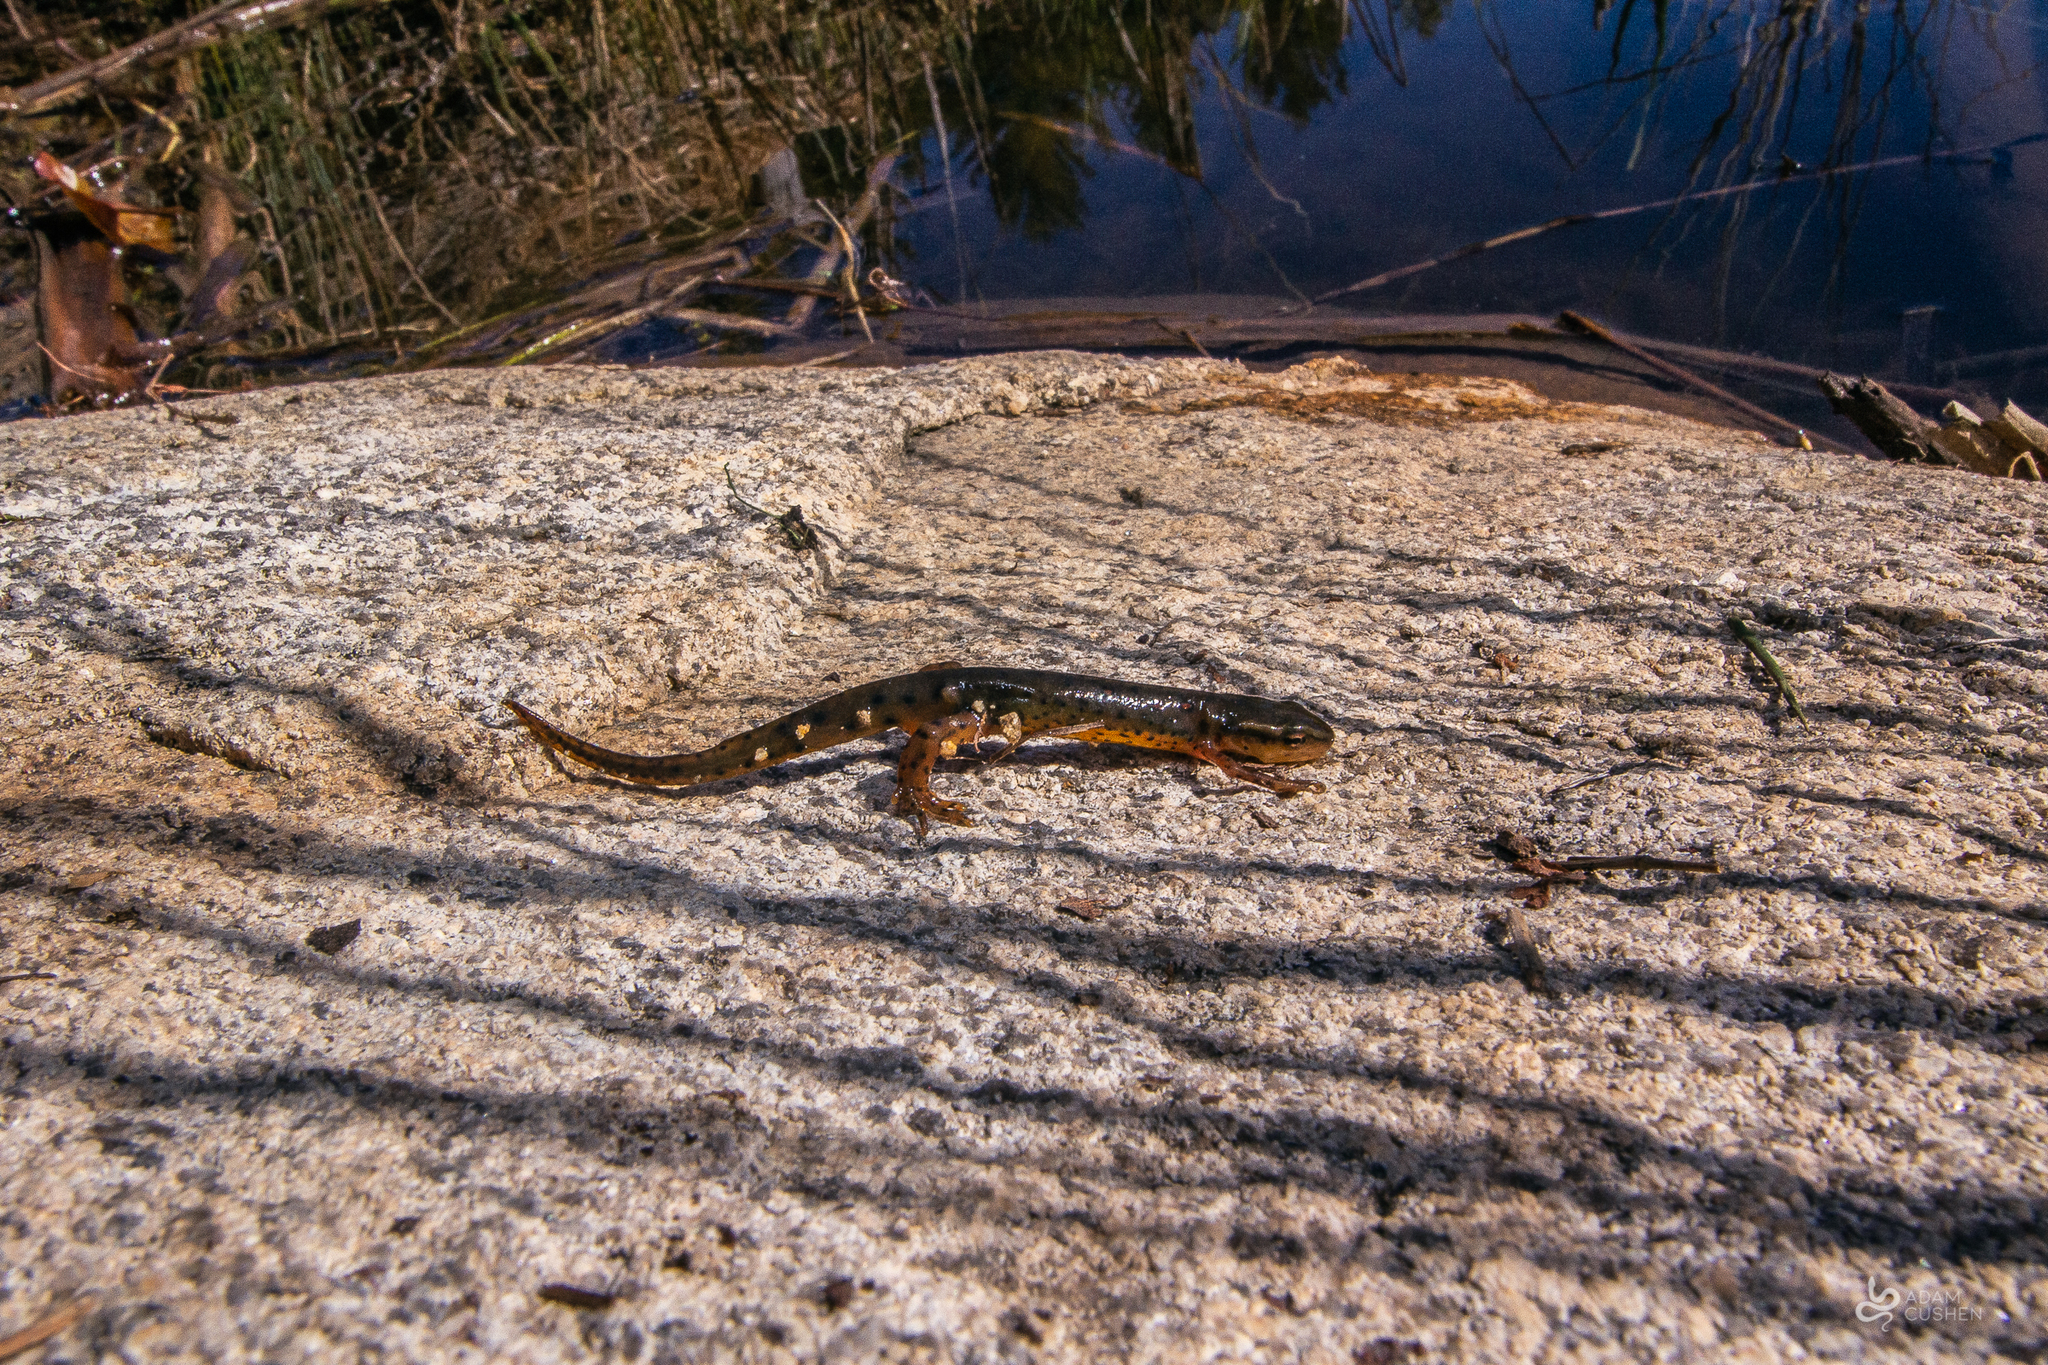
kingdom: Animalia
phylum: Chordata
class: Amphibia
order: Caudata
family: Salamandridae
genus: Notophthalmus
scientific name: Notophthalmus viridescens
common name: Eastern newt
